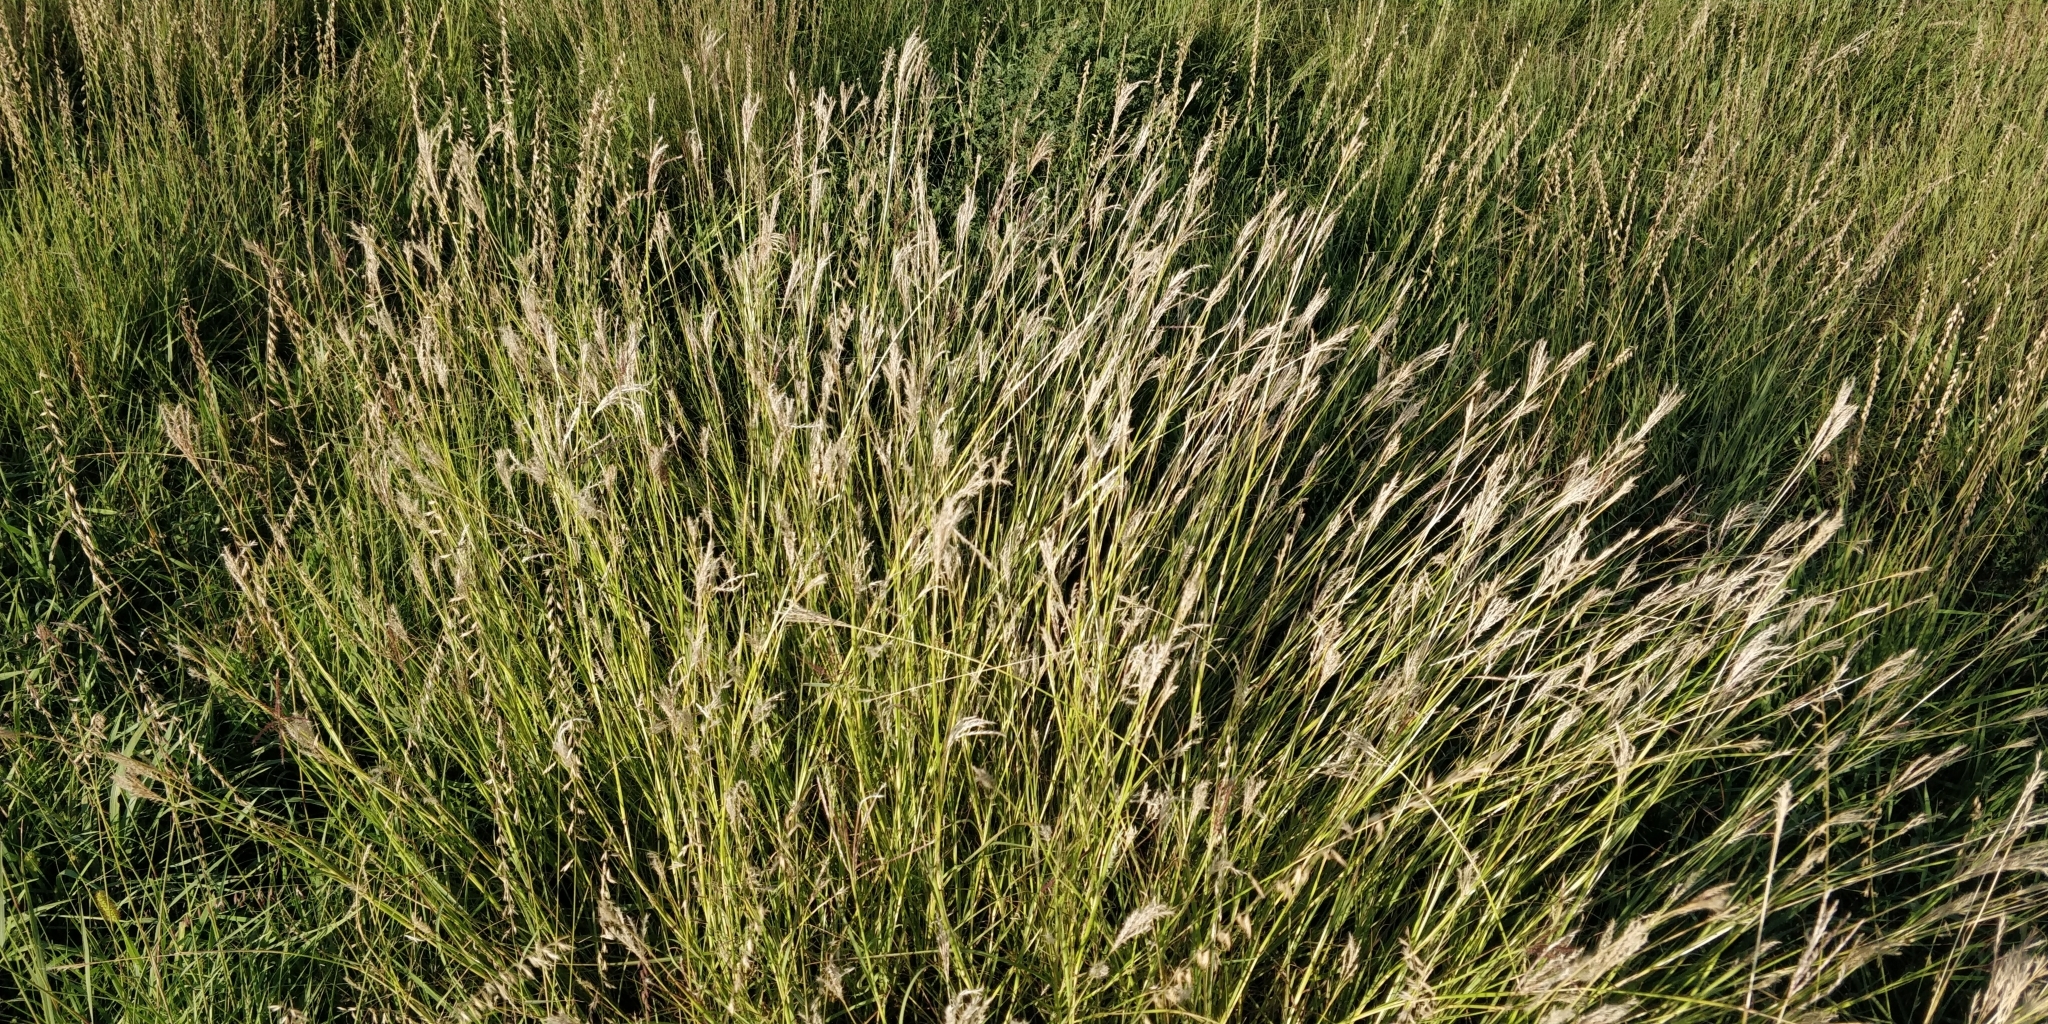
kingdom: Plantae
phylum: Tracheophyta
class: Liliopsida
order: Poales
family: Poaceae
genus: Bothriochloa
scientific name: Bothriochloa ischaemum
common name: Yellow bluestem
